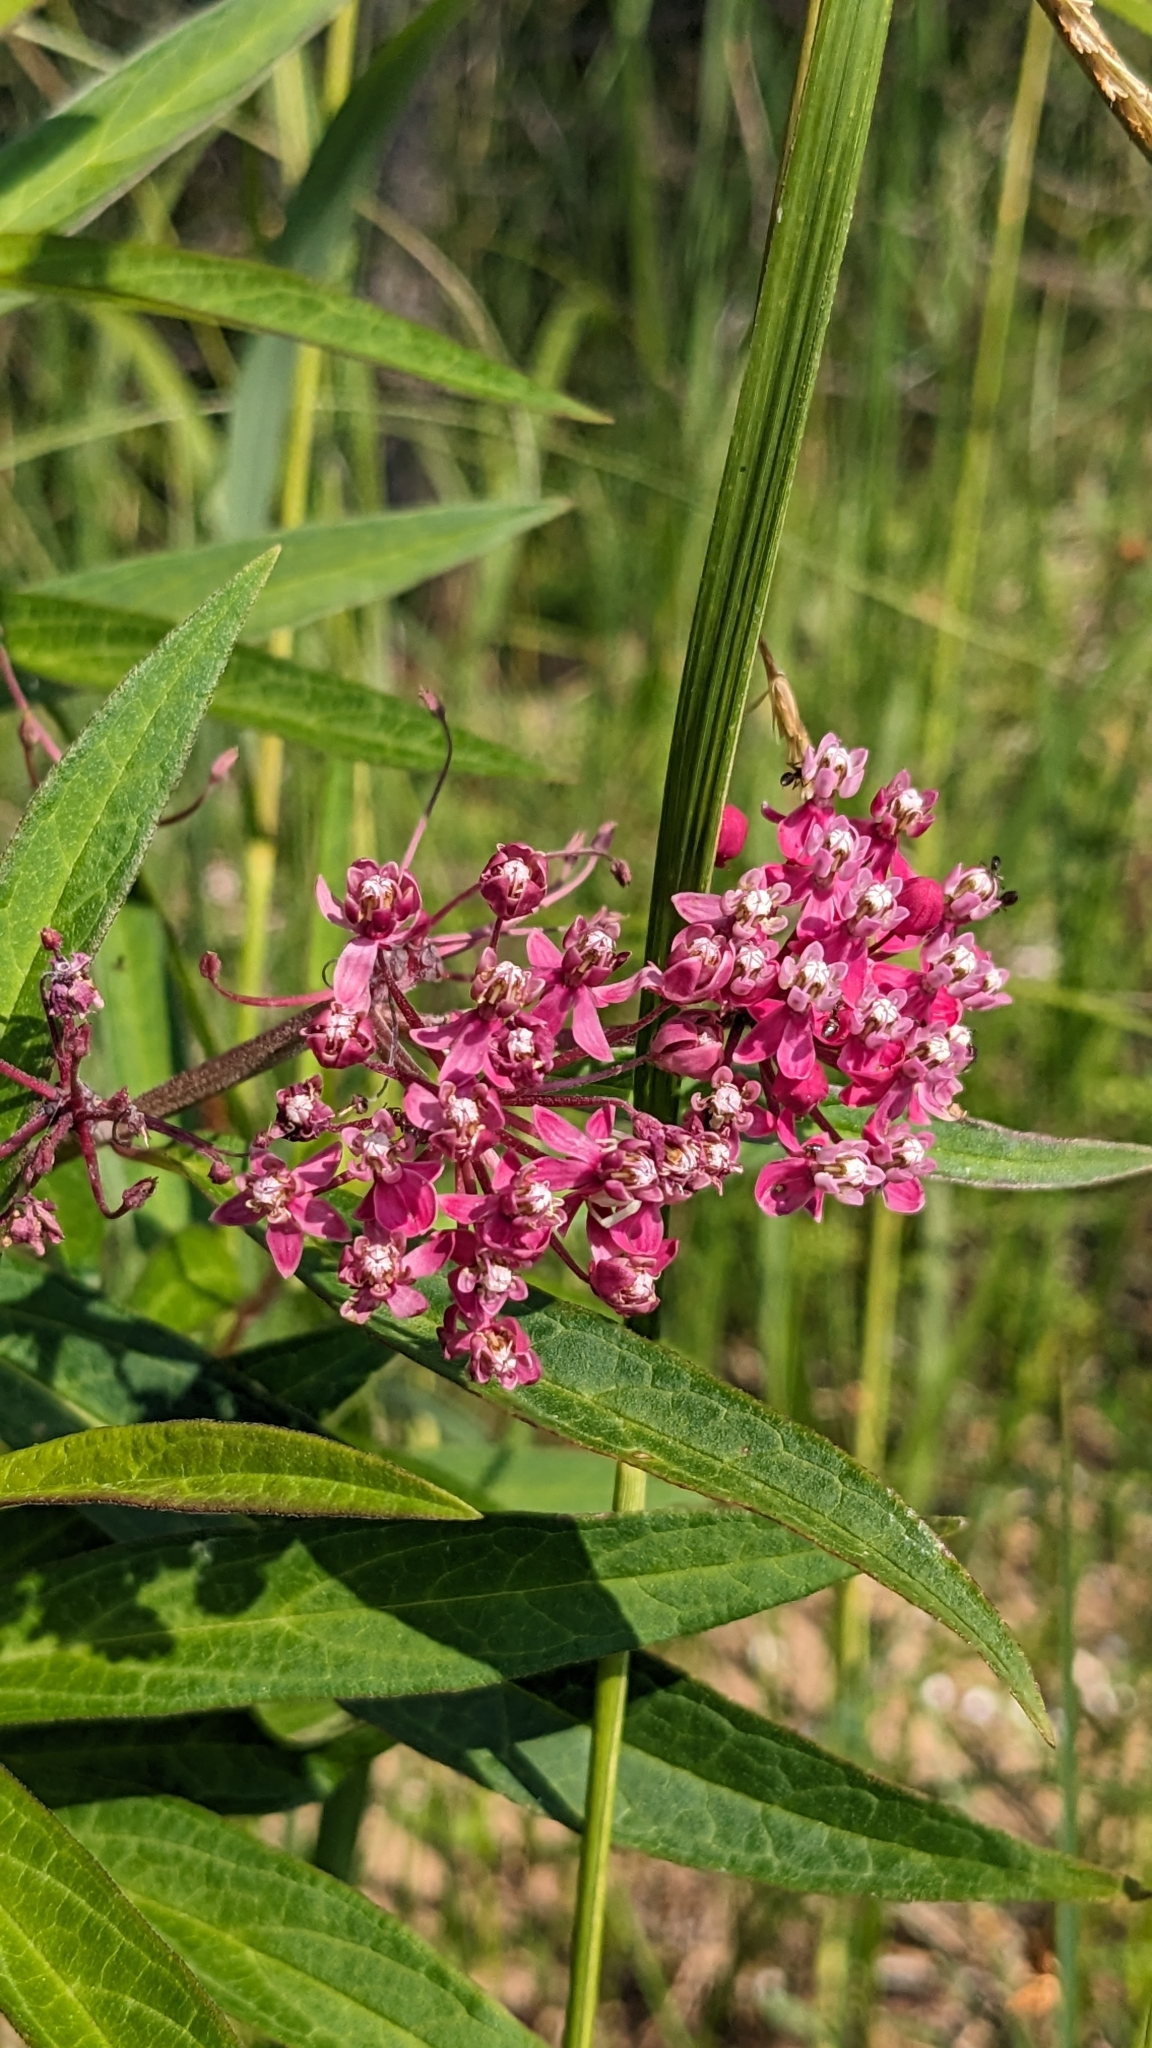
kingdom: Plantae
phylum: Tracheophyta
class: Magnoliopsida
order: Gentianales
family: Apocynaceae
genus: Asclepias
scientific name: Asclepias incarnata
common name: Swamp milkweed
